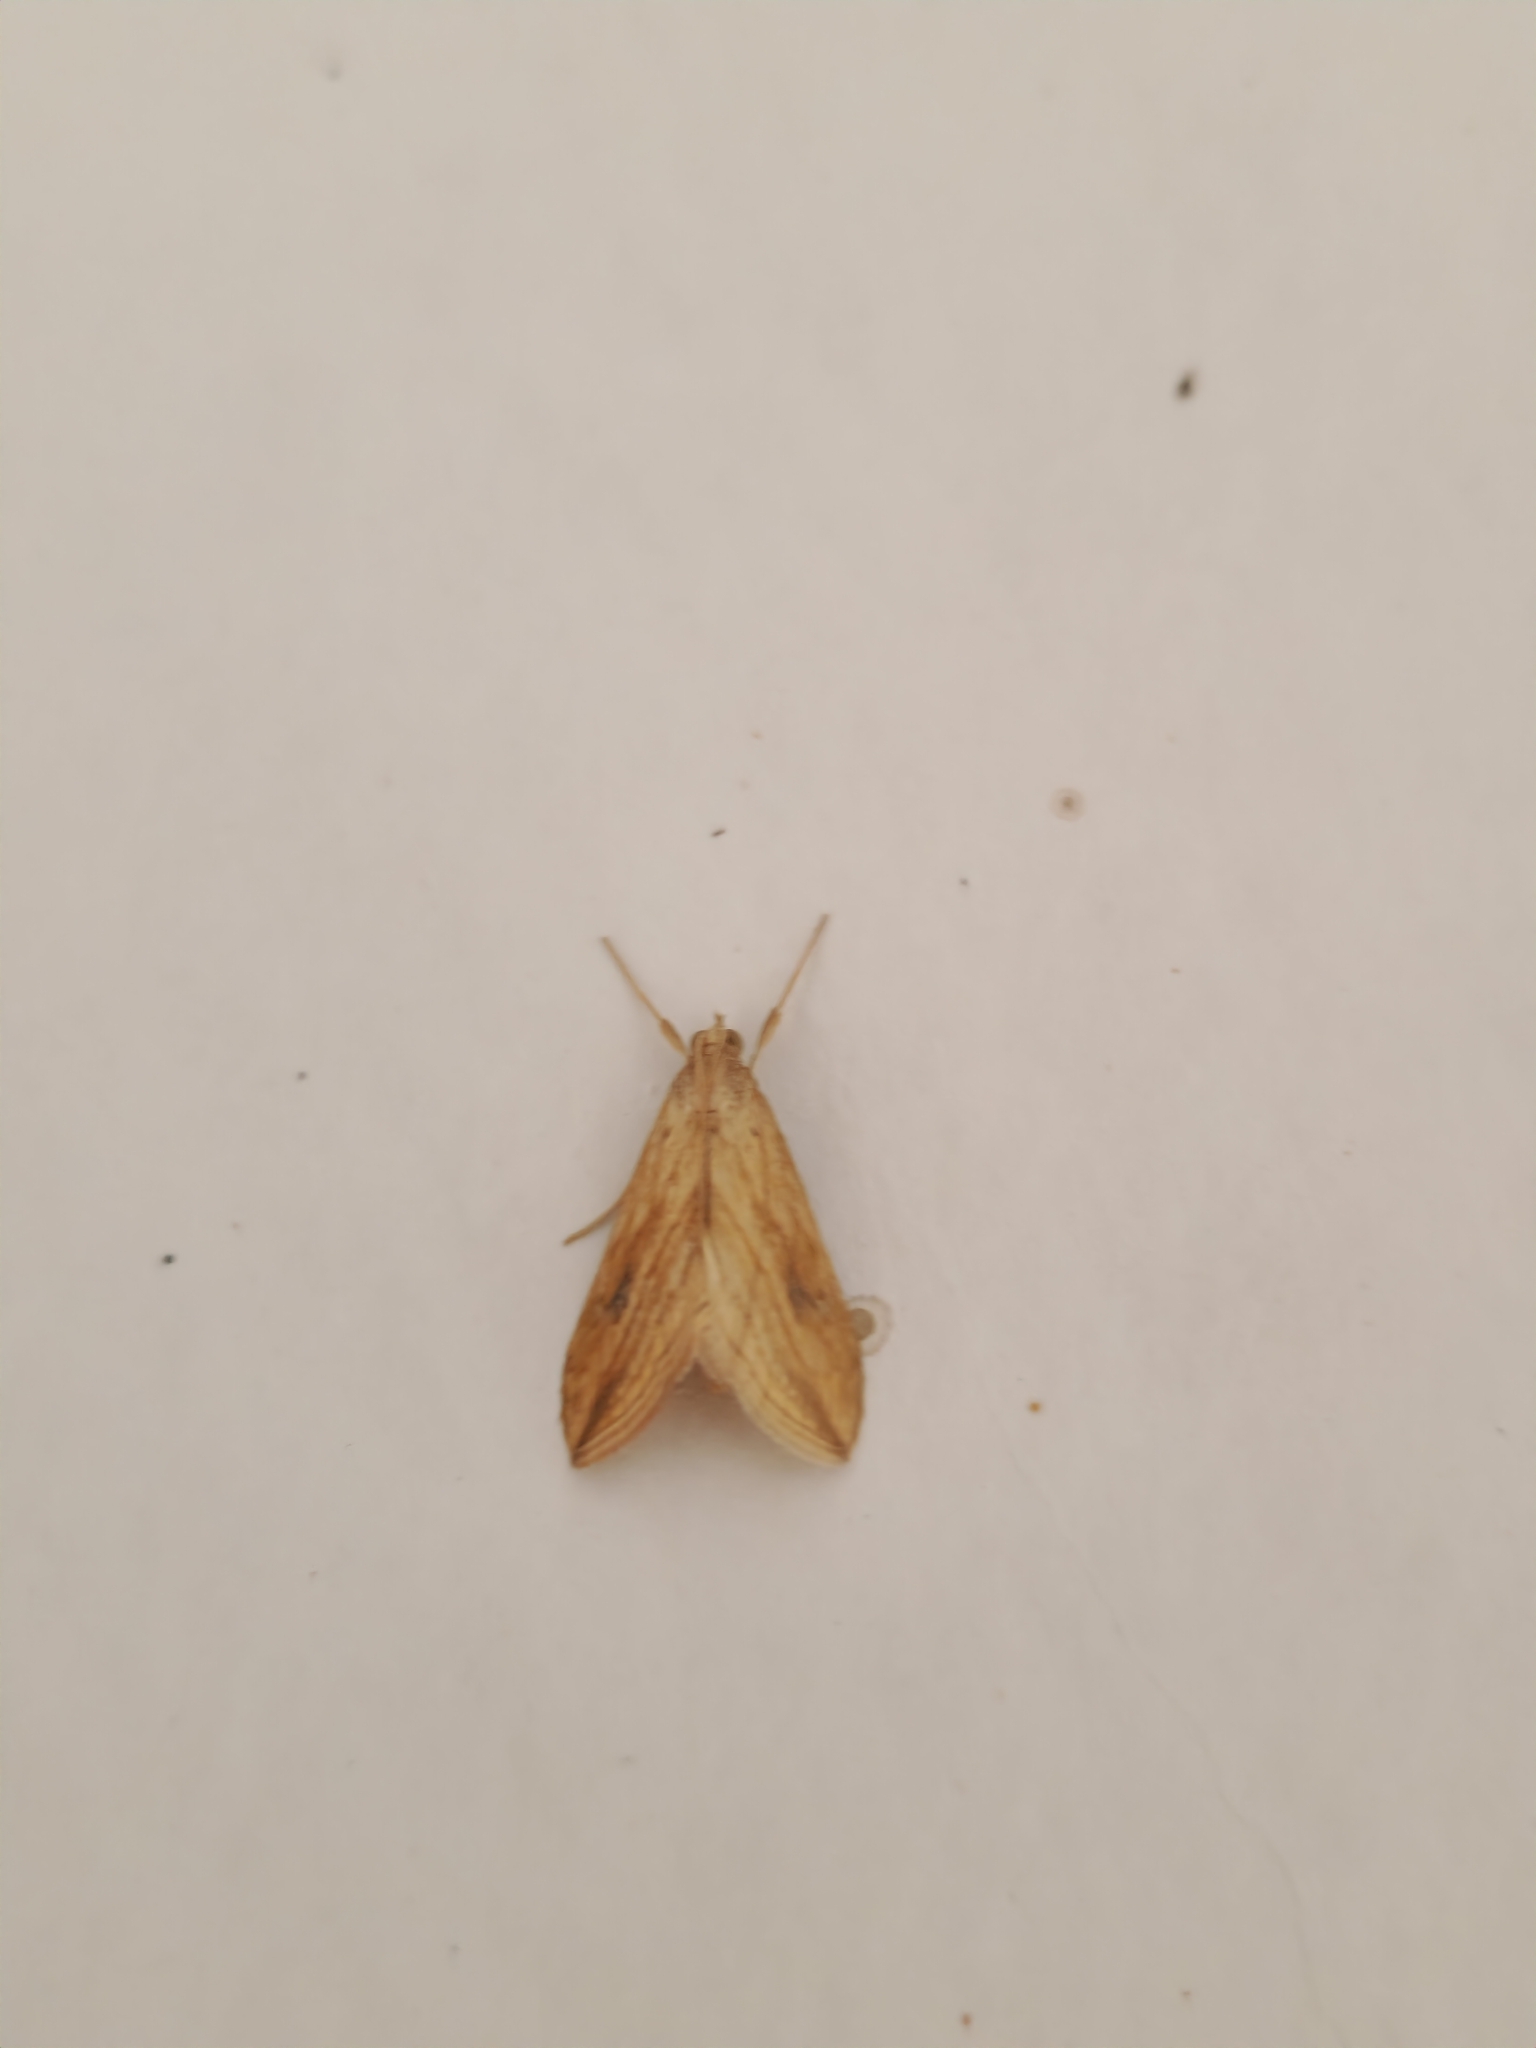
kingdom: Animalia
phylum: Arthropoda
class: Insecta
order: Lepidoptera
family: Crambidae
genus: Evergestis
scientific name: Evergestis forficalis
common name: Garden pebble
